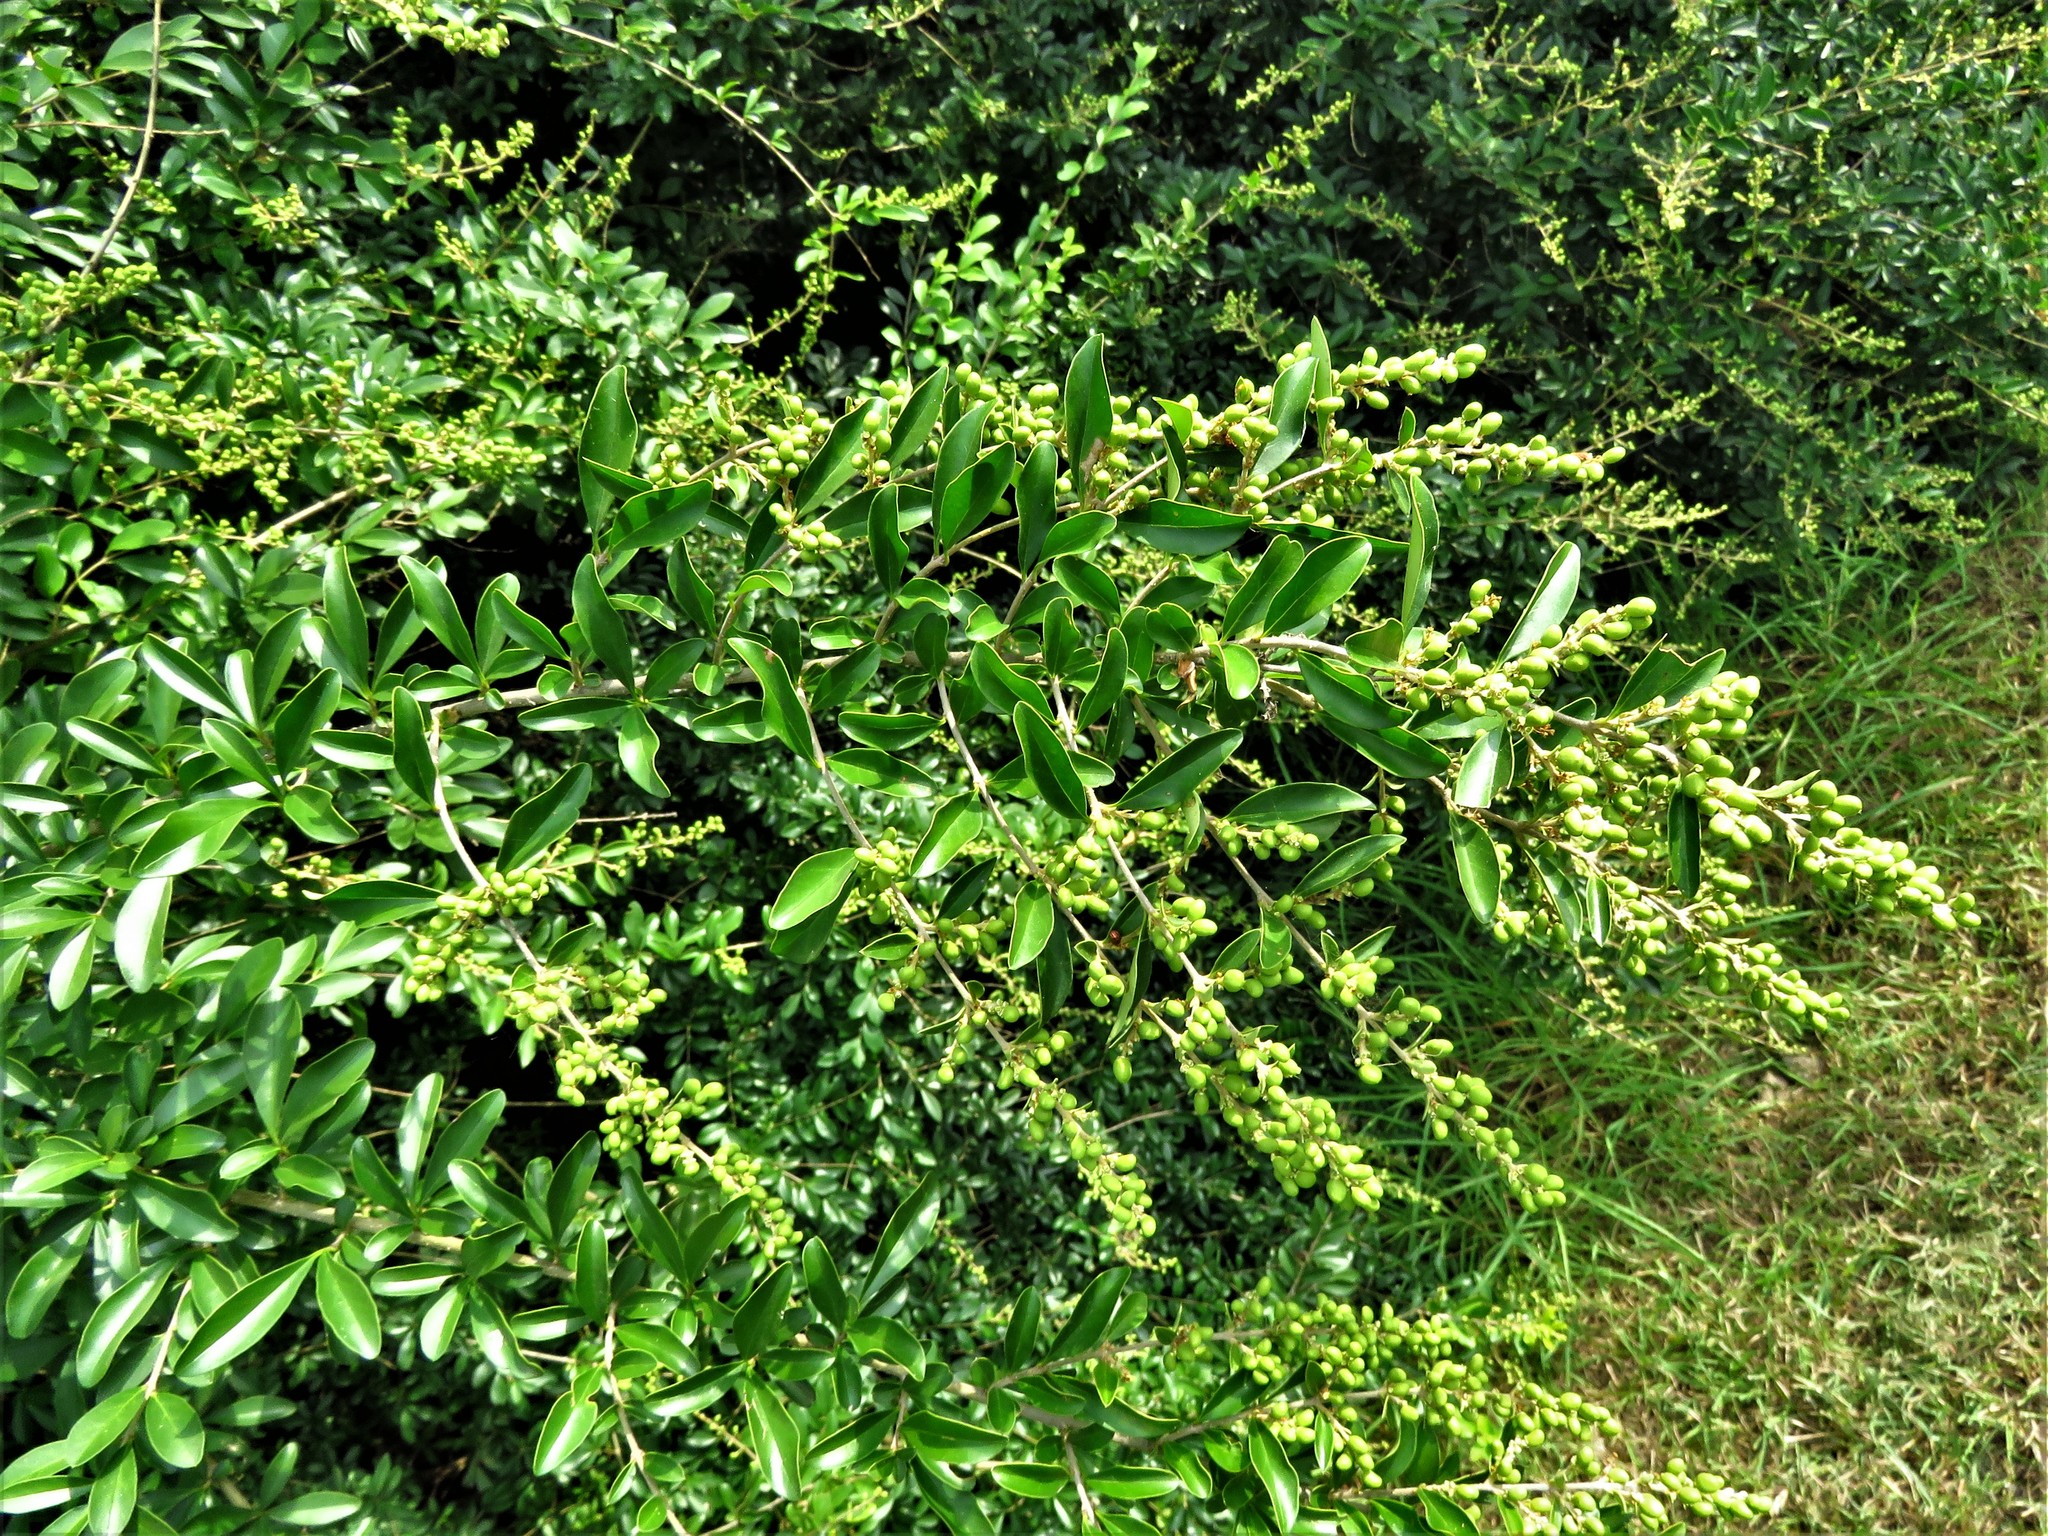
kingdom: Plantae
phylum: Tracheophyta
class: Magnoliopsida
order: Lamiales
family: Oleaceae
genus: Ligustrum
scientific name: Ligustrum quihoui
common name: Waxyleaf privet
